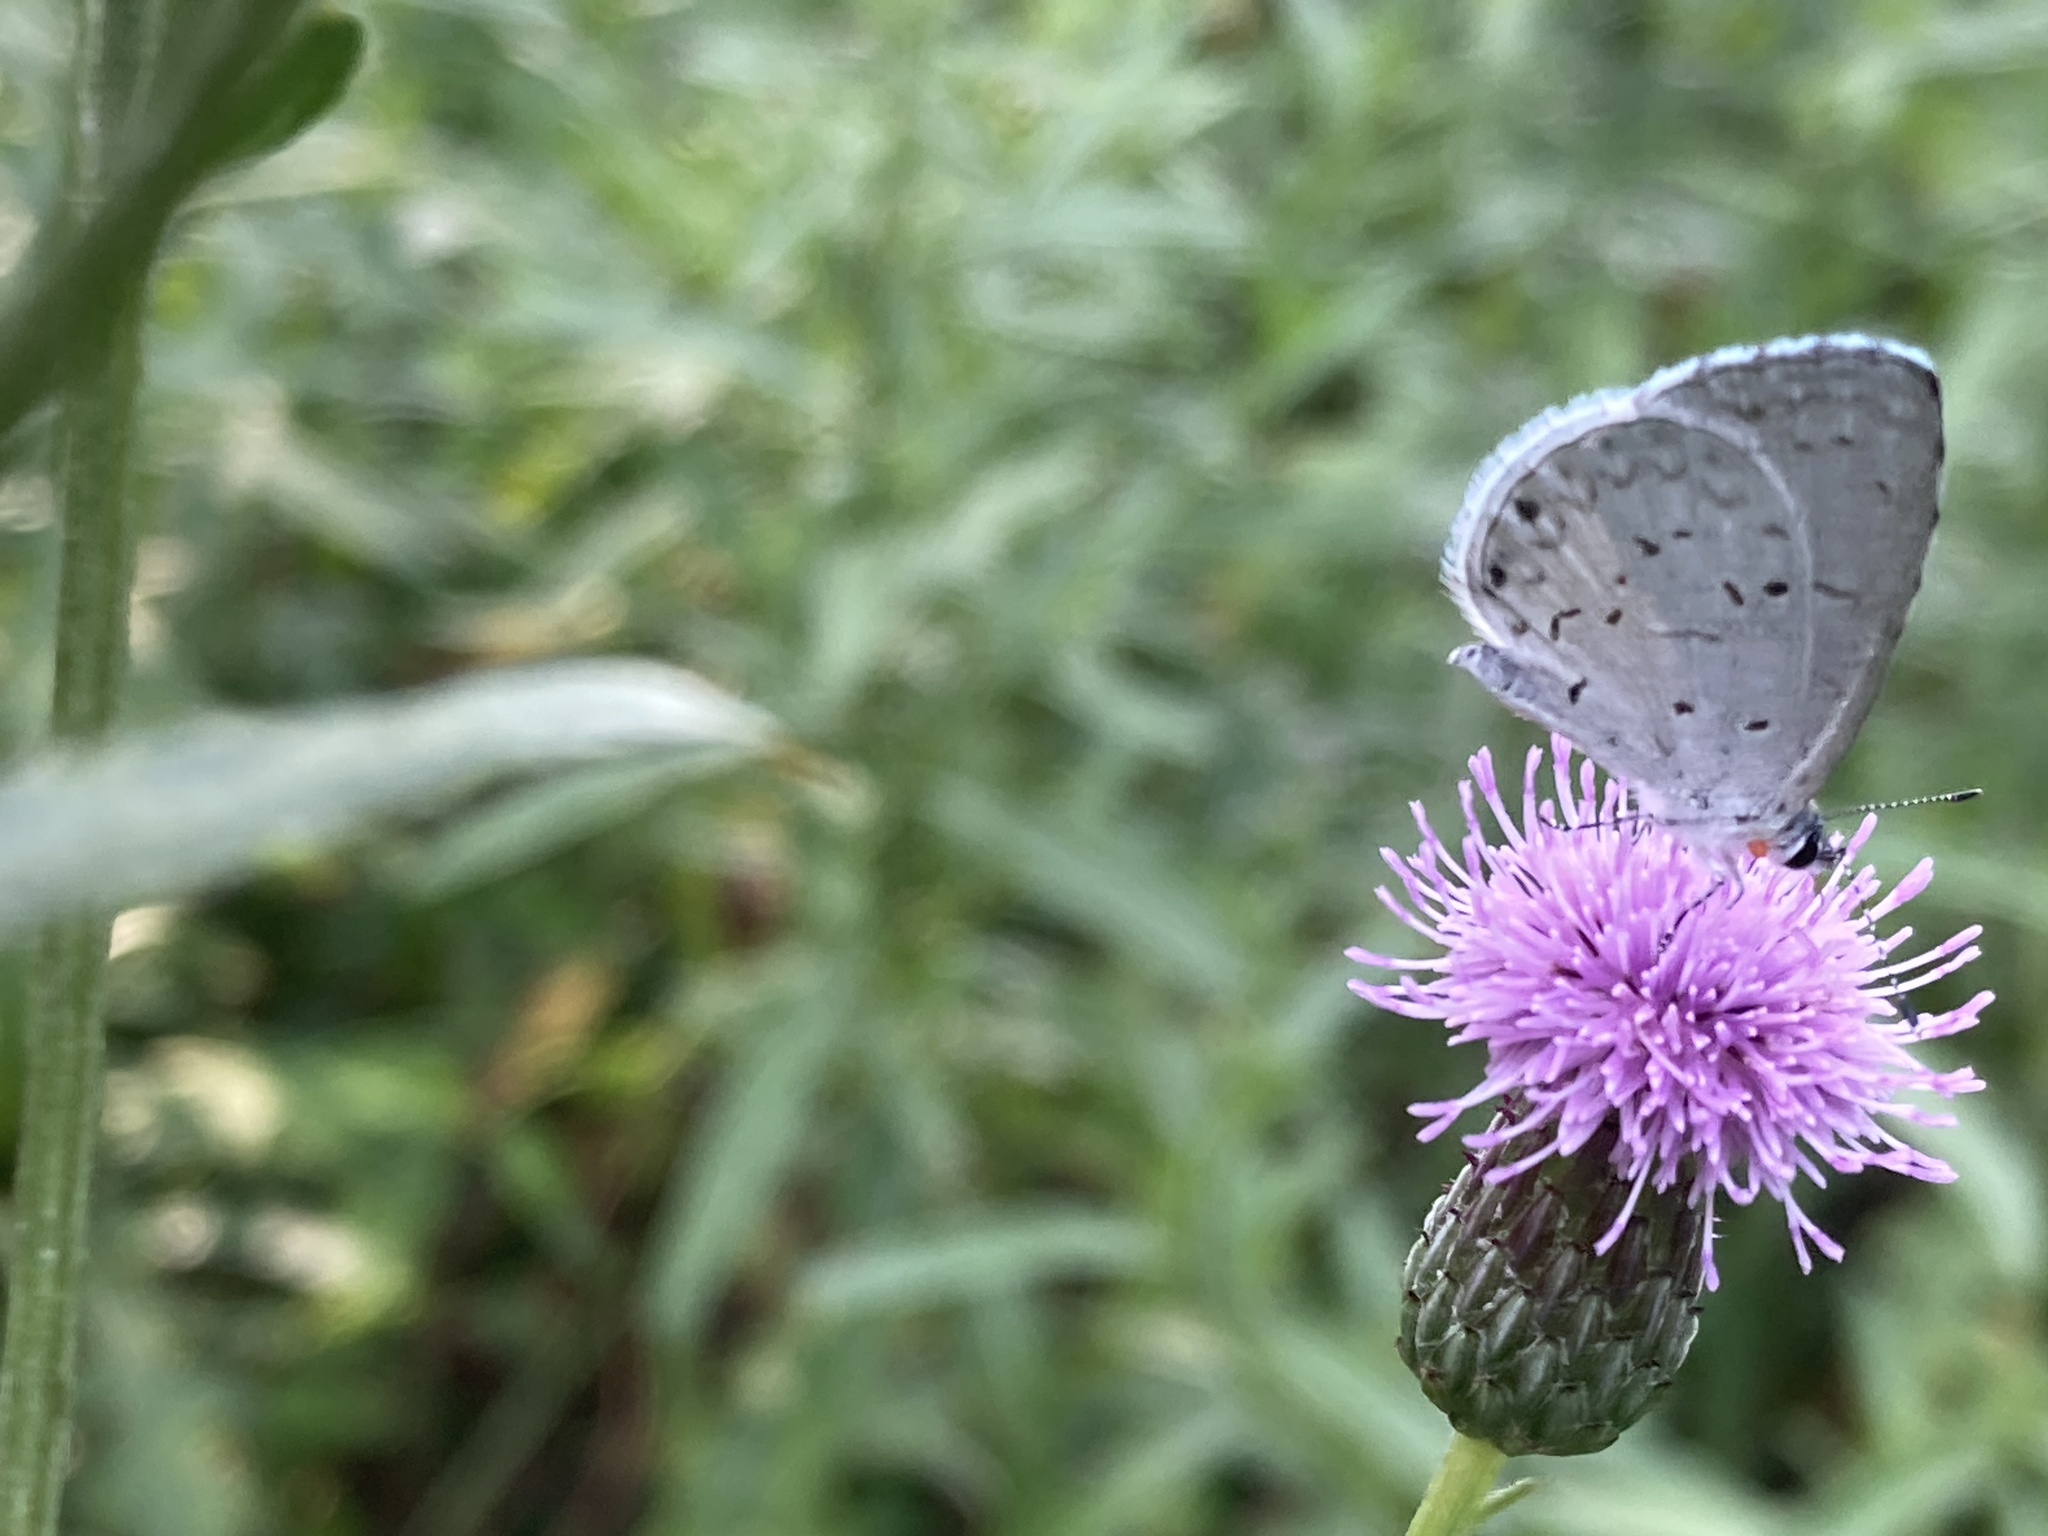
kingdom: Animalia
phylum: Arthropoda
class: Insecta
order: Lepidoptera
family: Lycaenidae
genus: Cyaniris
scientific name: Cyaniris neglecta
